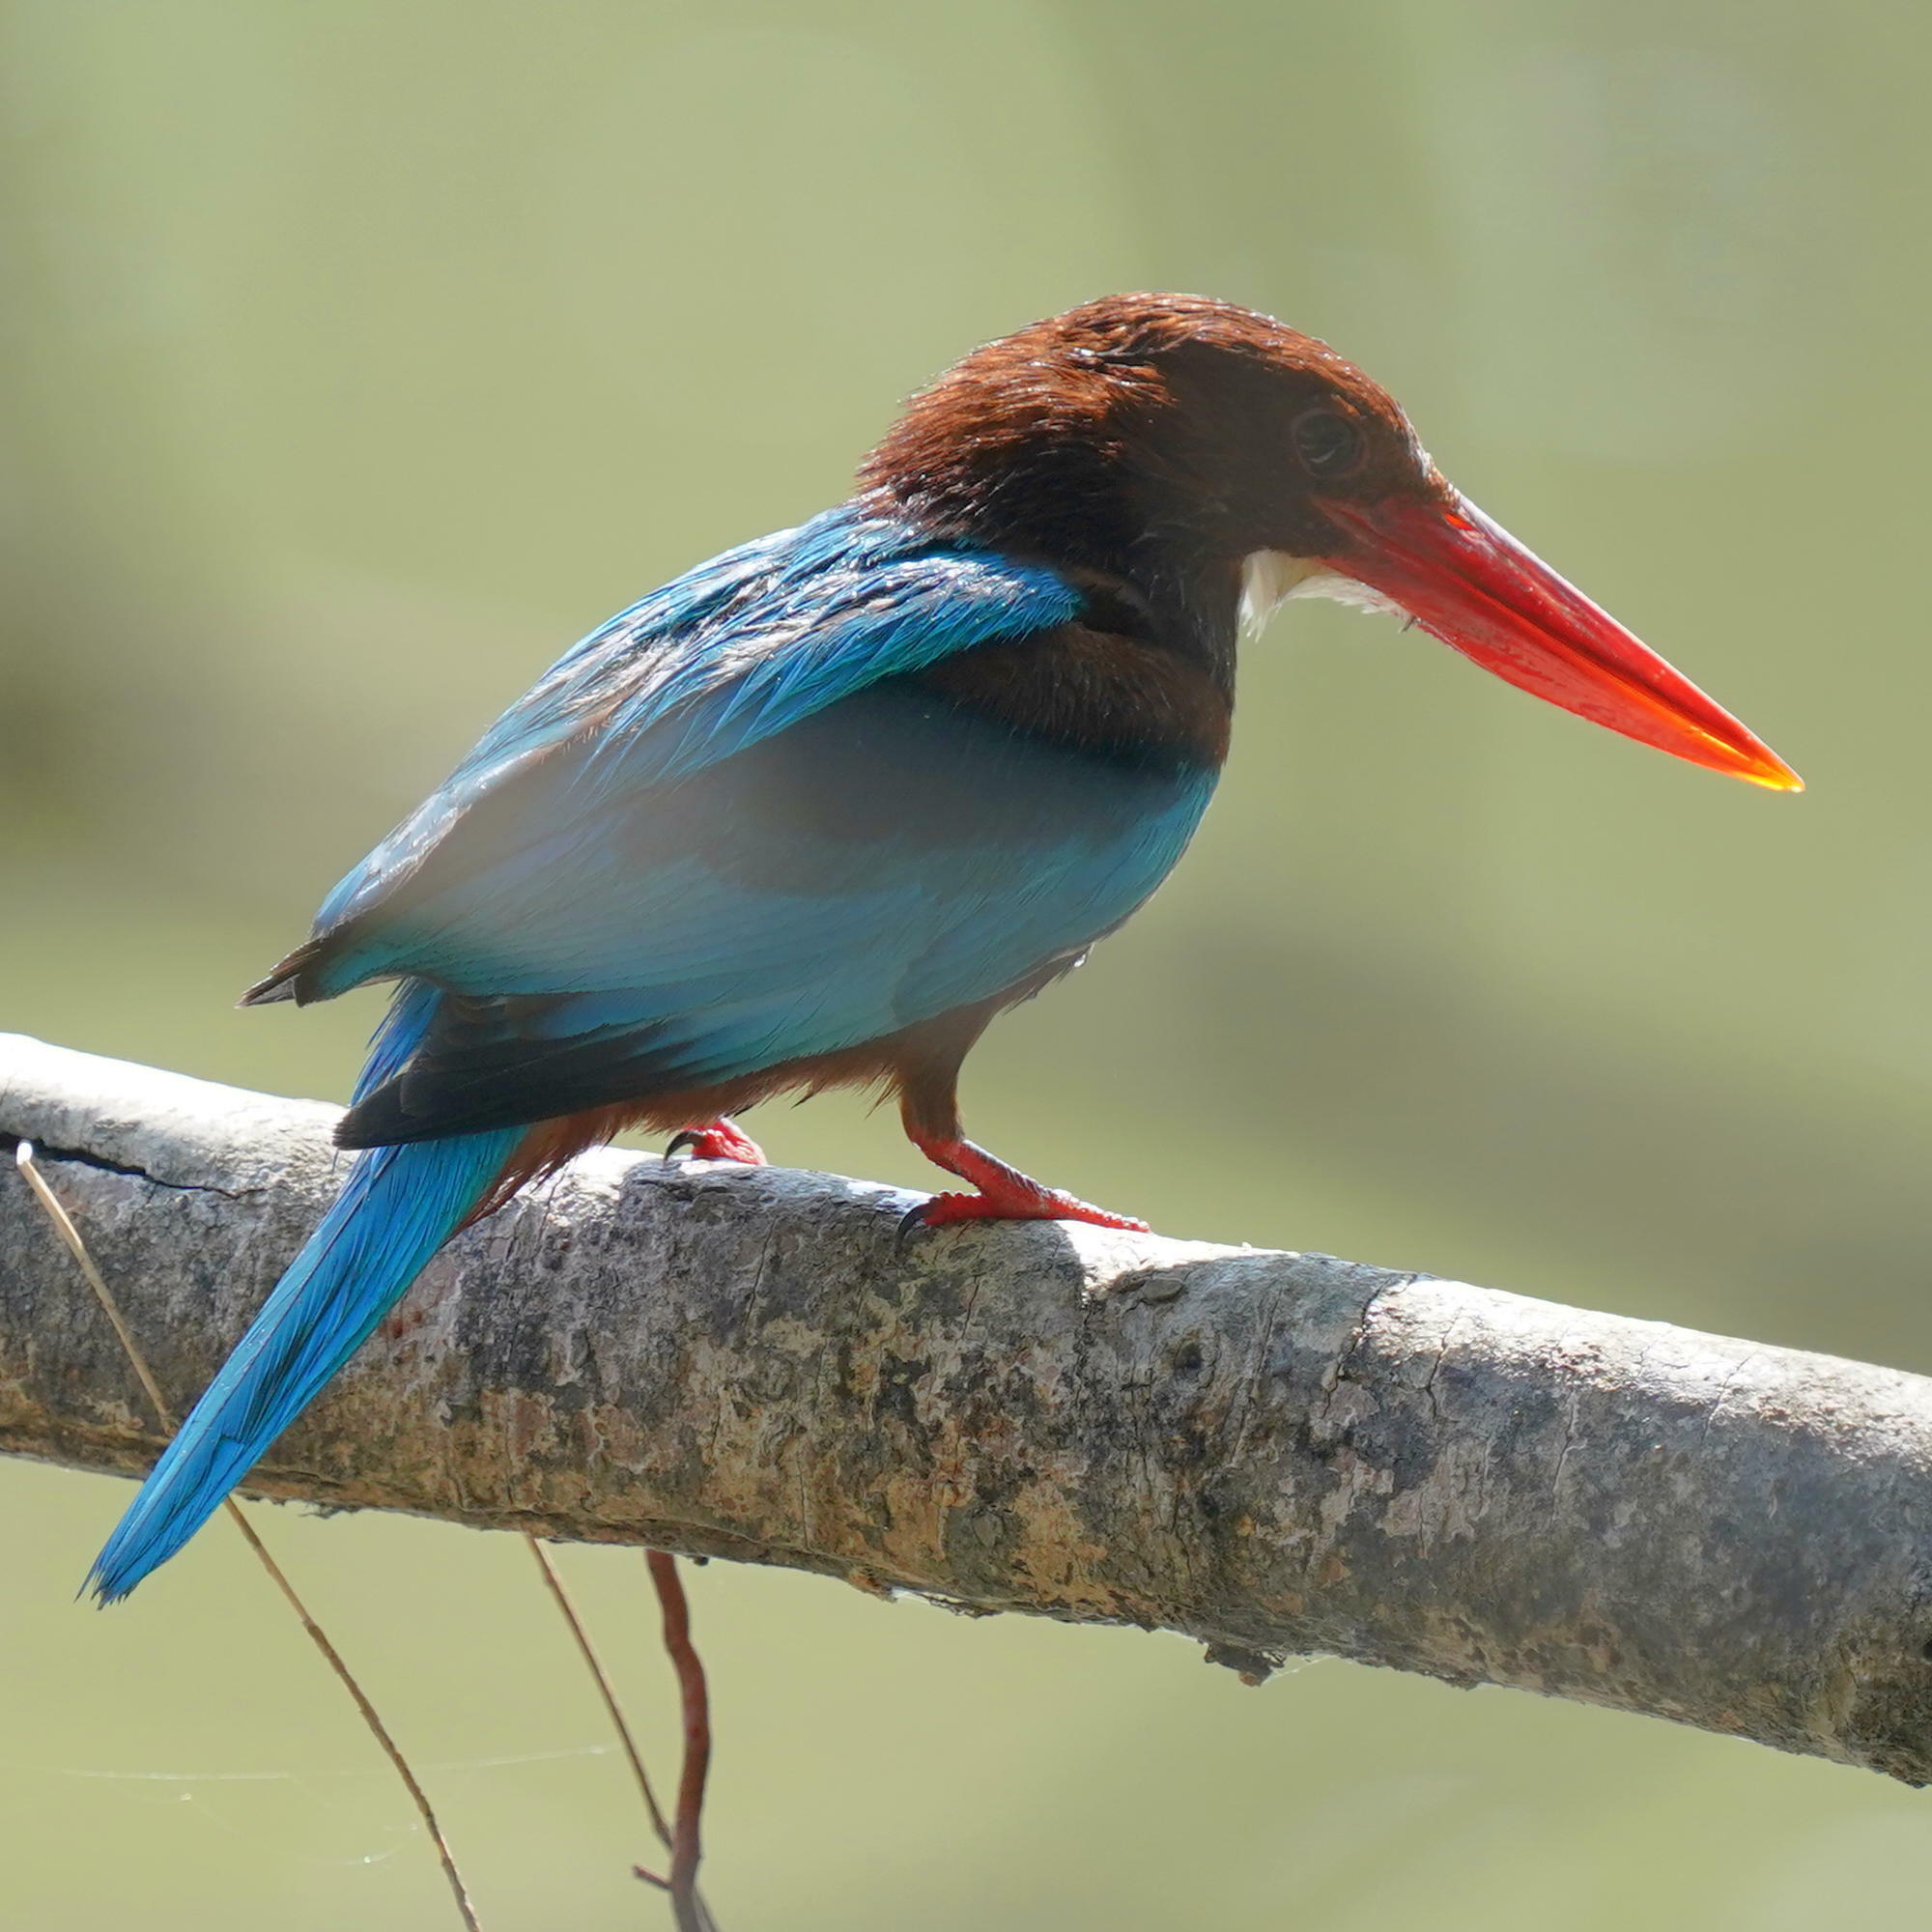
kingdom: Animalia
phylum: Chordata
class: Aves
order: Coraciiformes
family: Alcedinidae
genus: Halcyon
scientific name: Halcyon smyrnensis
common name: White-throated kingfisher
